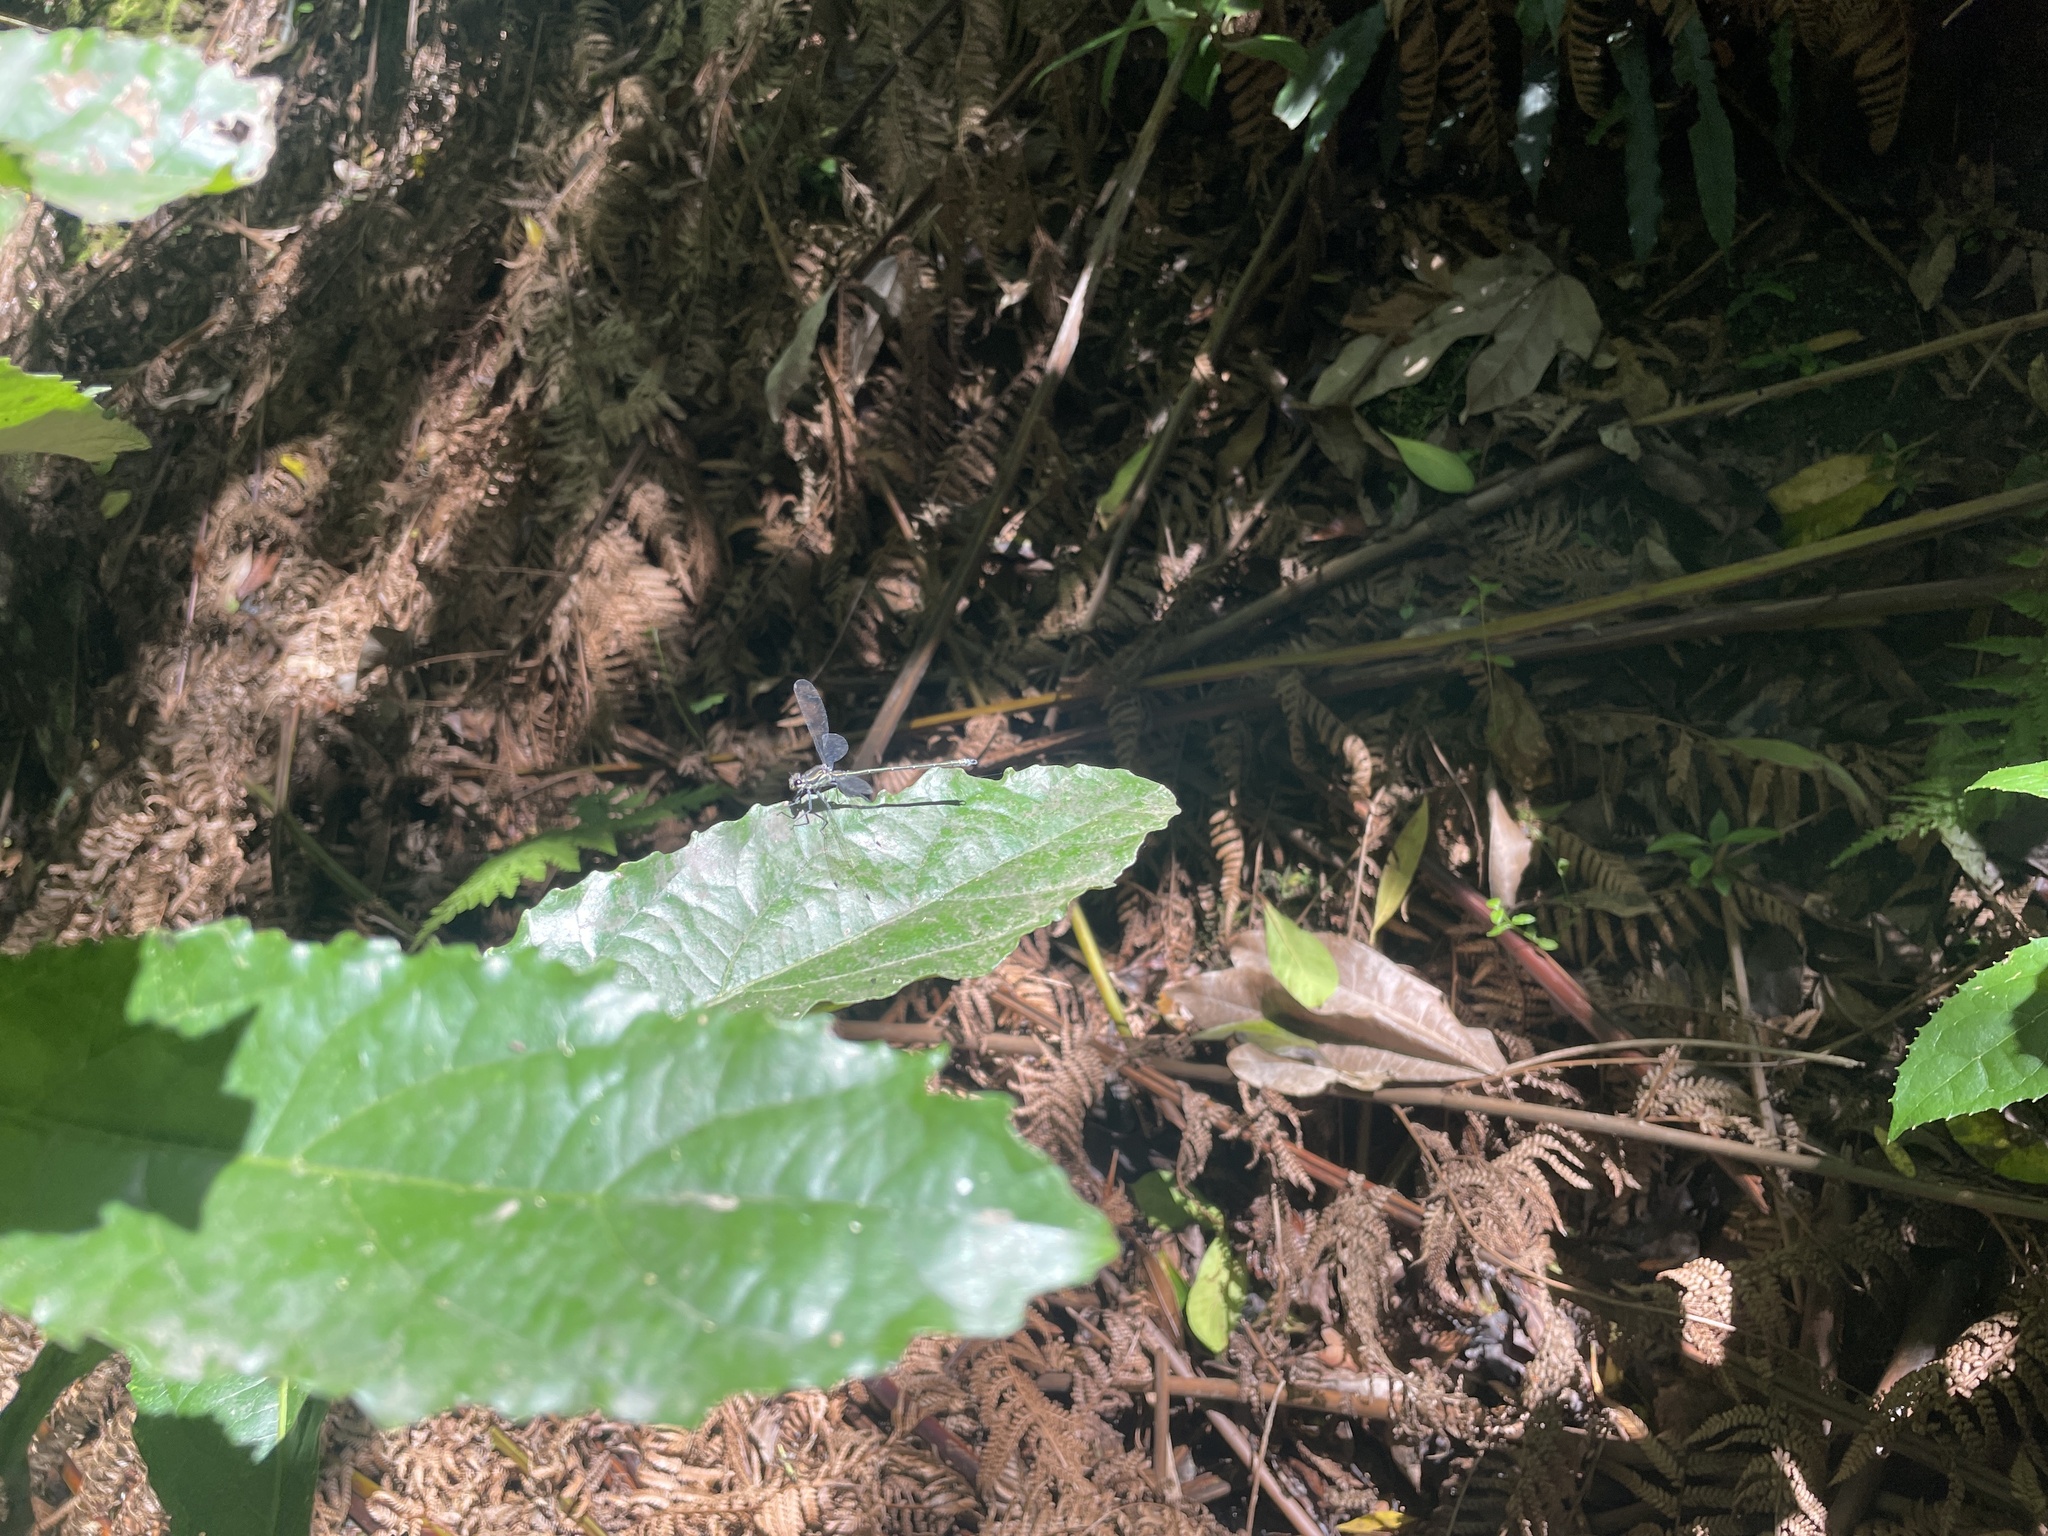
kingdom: Animalia
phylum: Arthropoda
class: Insecta
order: Odonata
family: Argiolestidae
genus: Austroargiolestes
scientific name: Austroargiolestes icteromelas
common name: Common flatwing
